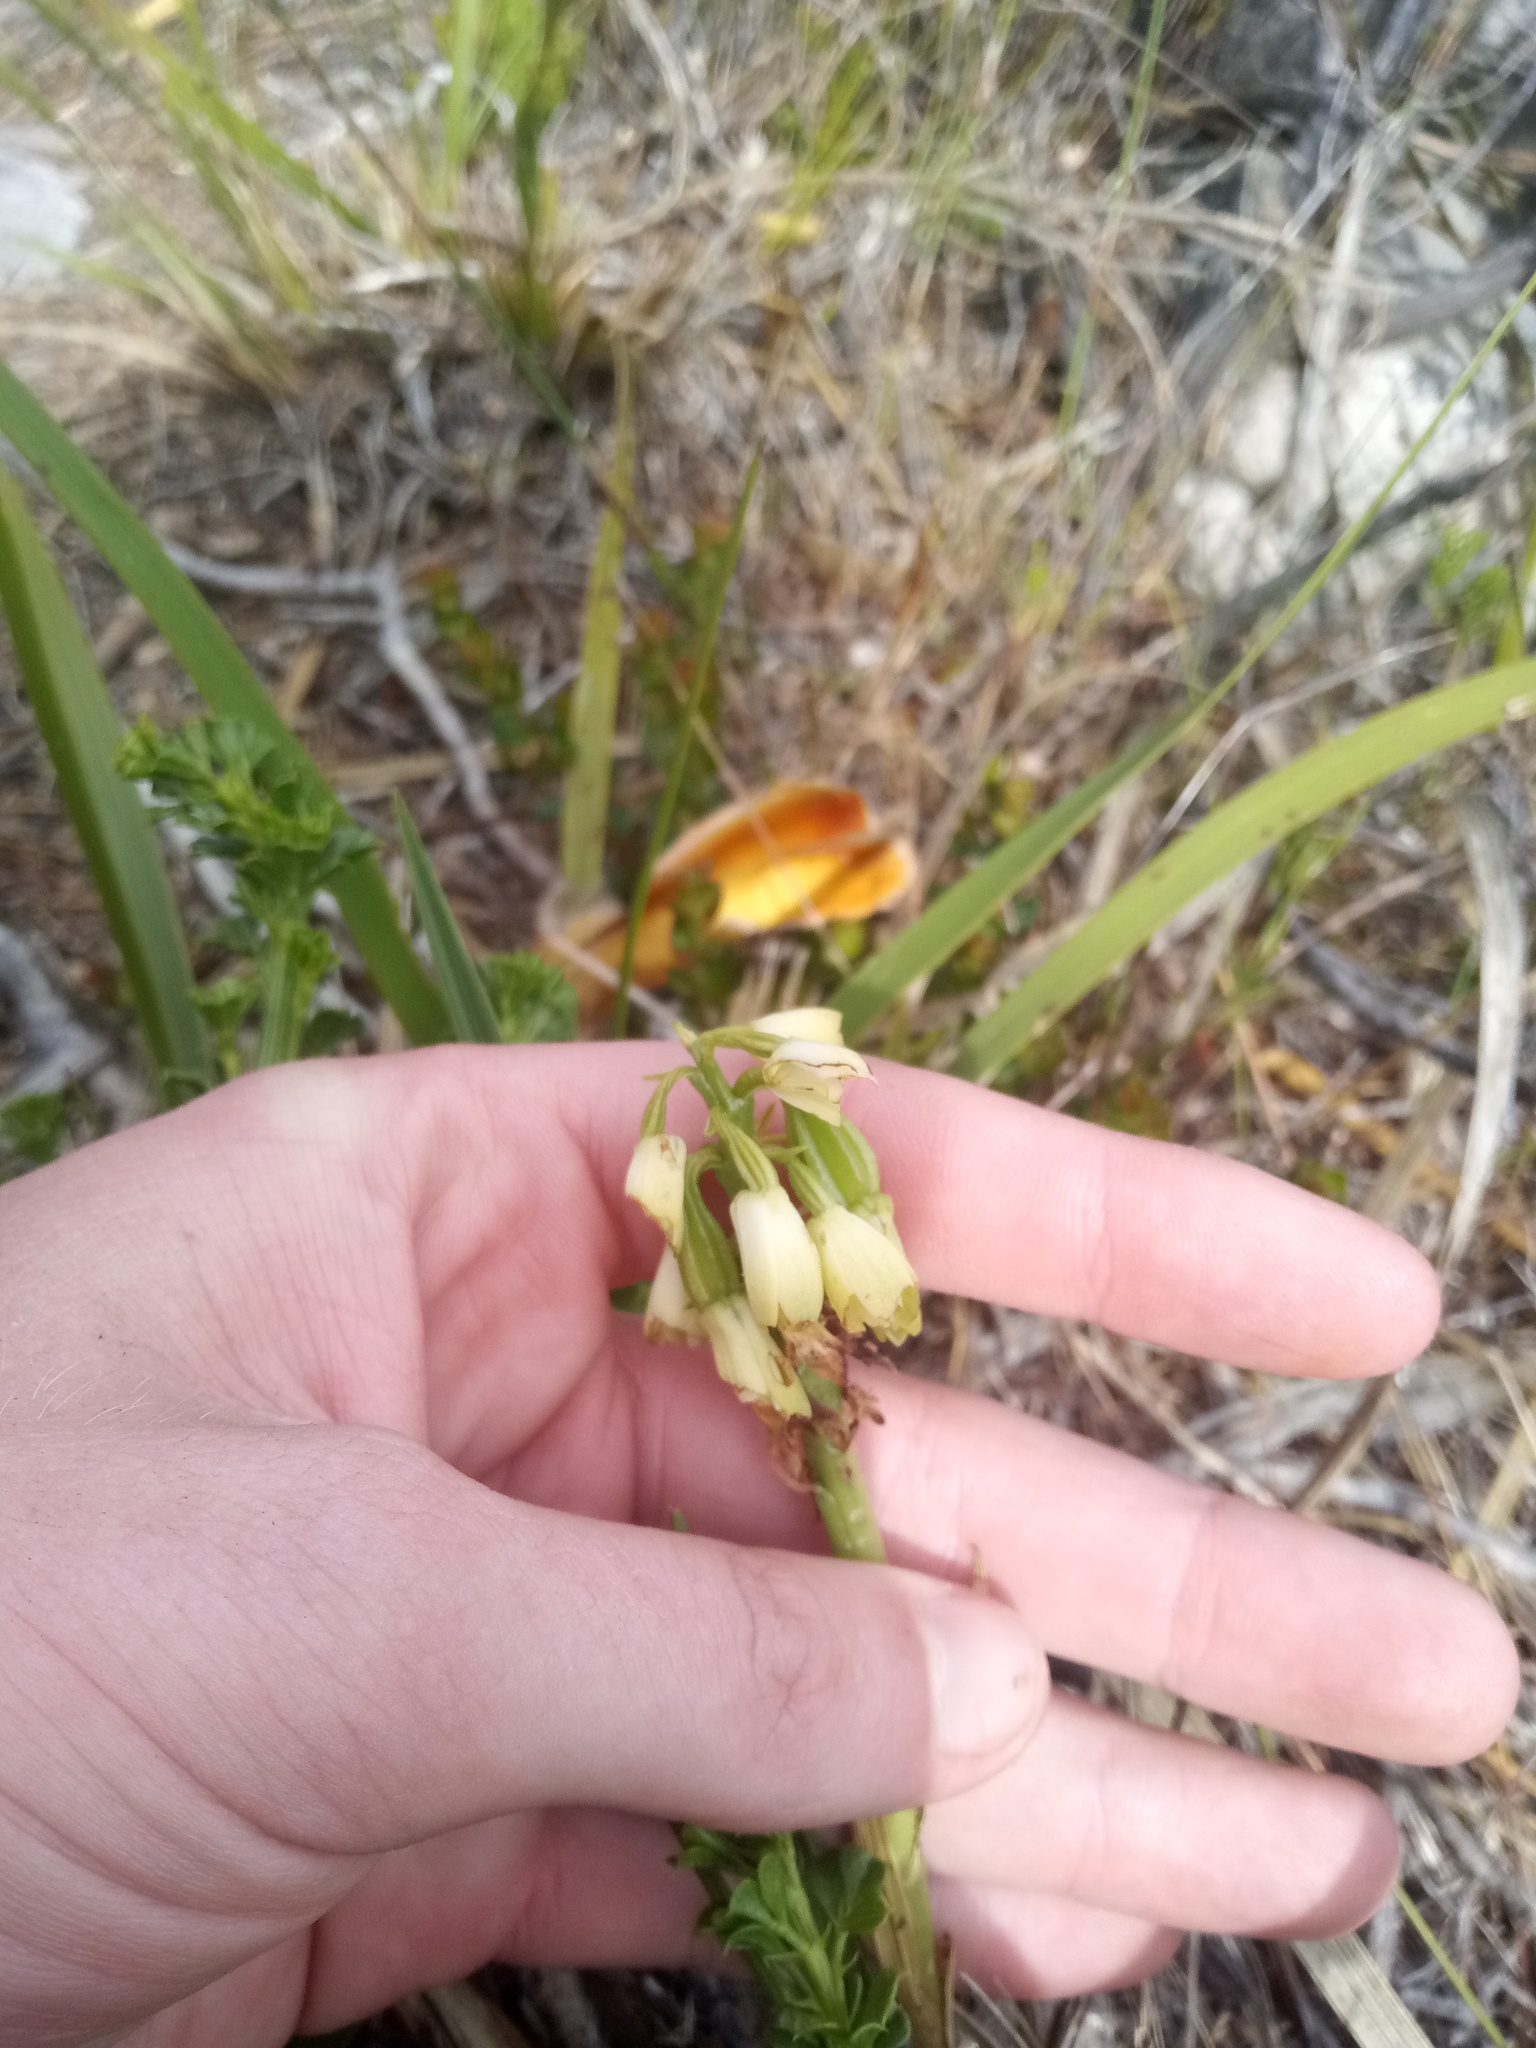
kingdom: Plantae
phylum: Tracheophyta
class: Liliopsida
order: Asparagales
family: Orchidaceae
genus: Eulophia
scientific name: Eulophia aculeata
